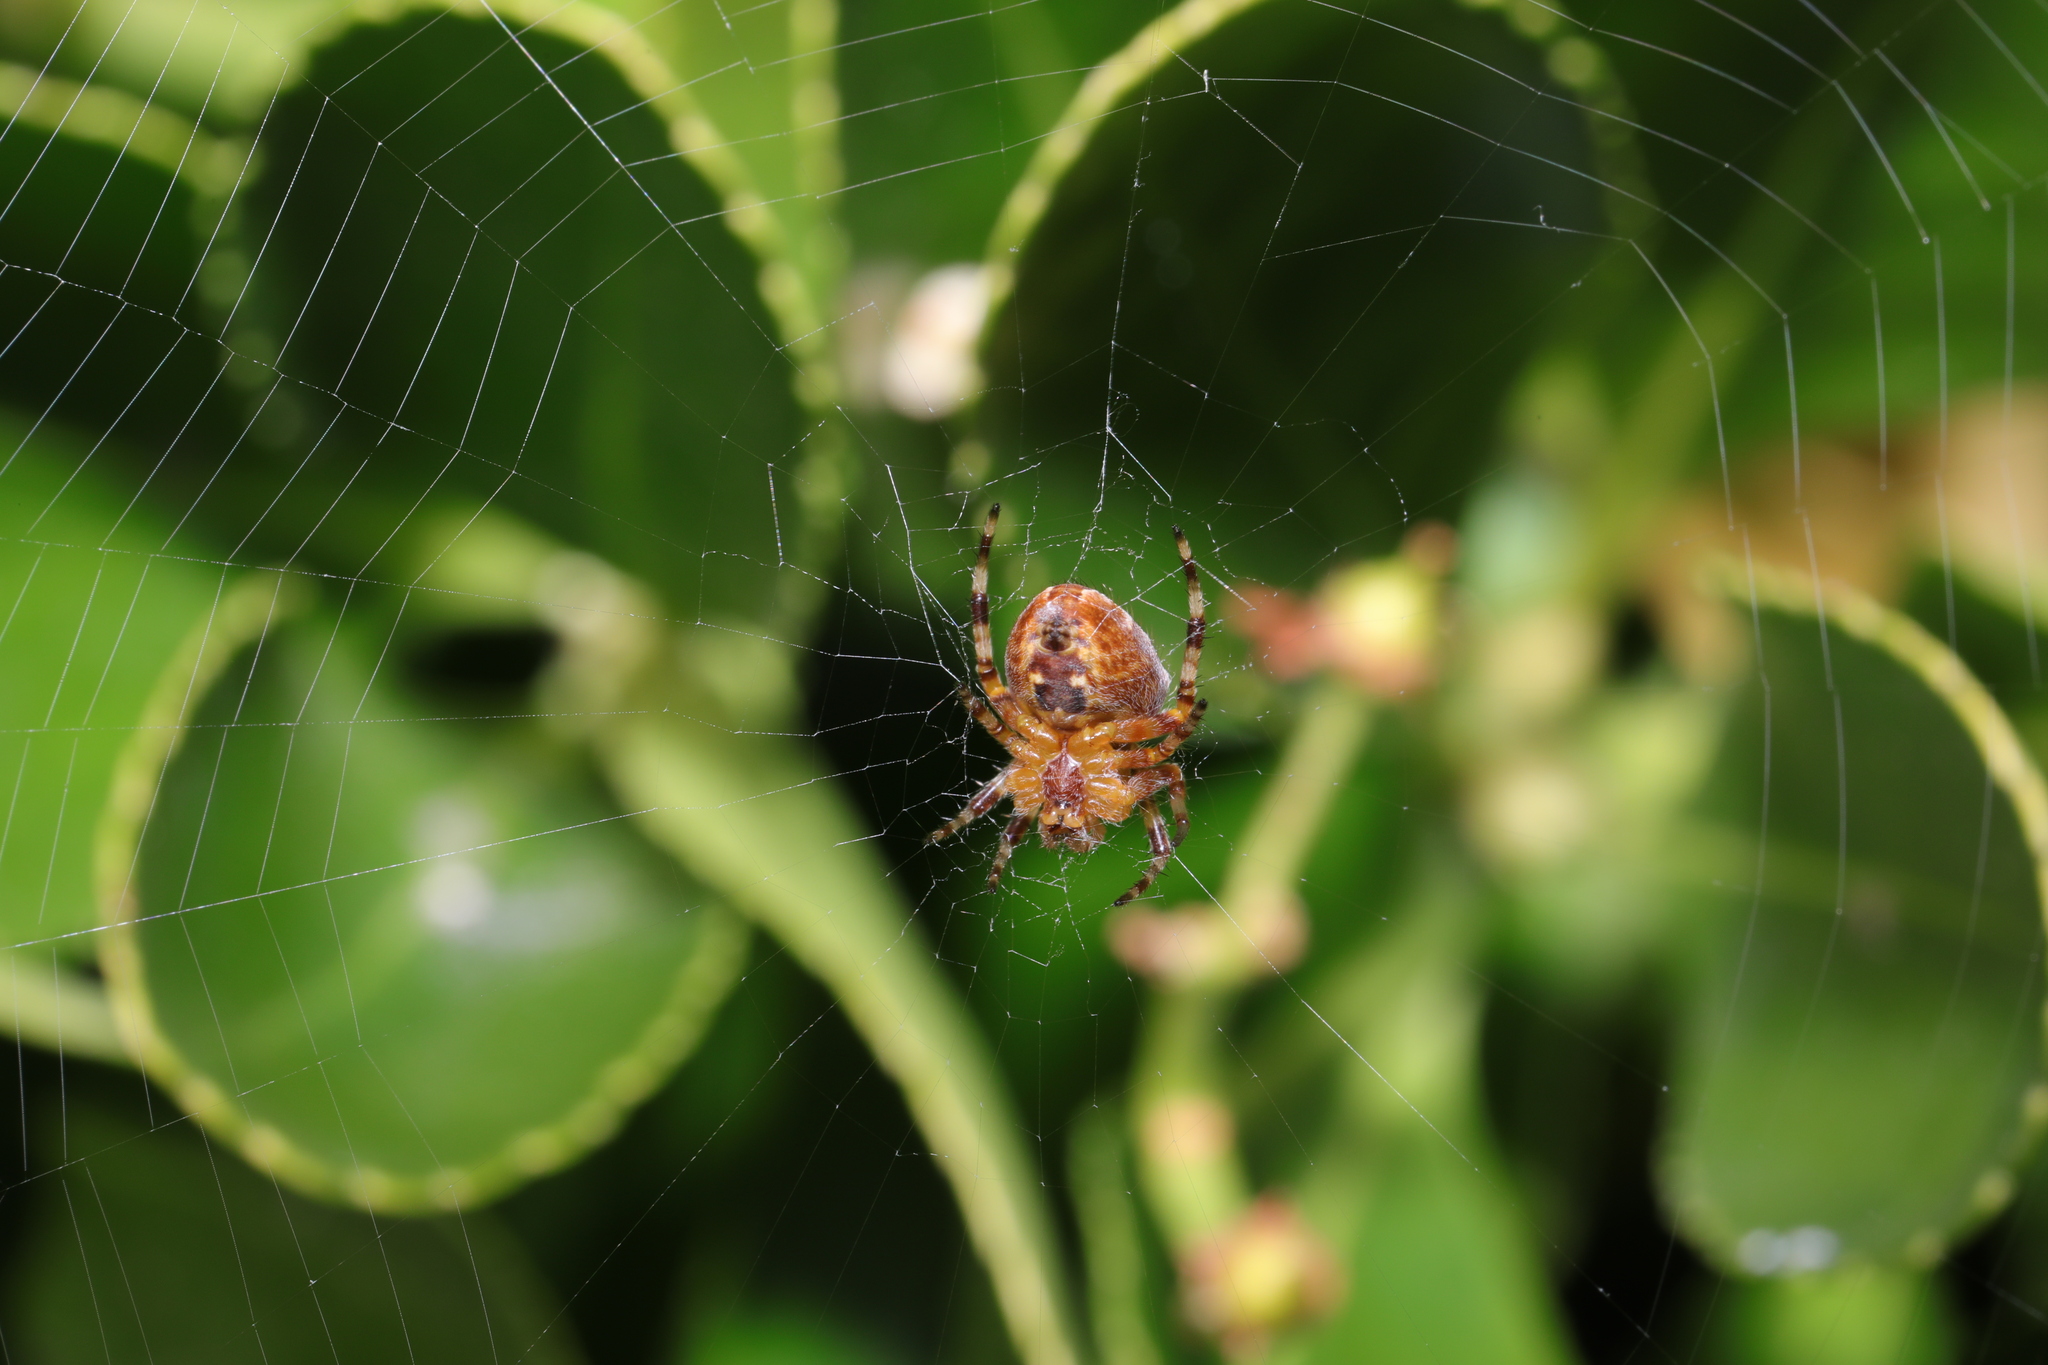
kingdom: Animalia
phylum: Arthropoda
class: Arachnida
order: Araneae
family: Araneidae
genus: Araneus
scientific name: Araneus diadematus
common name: Cross orbweaver
